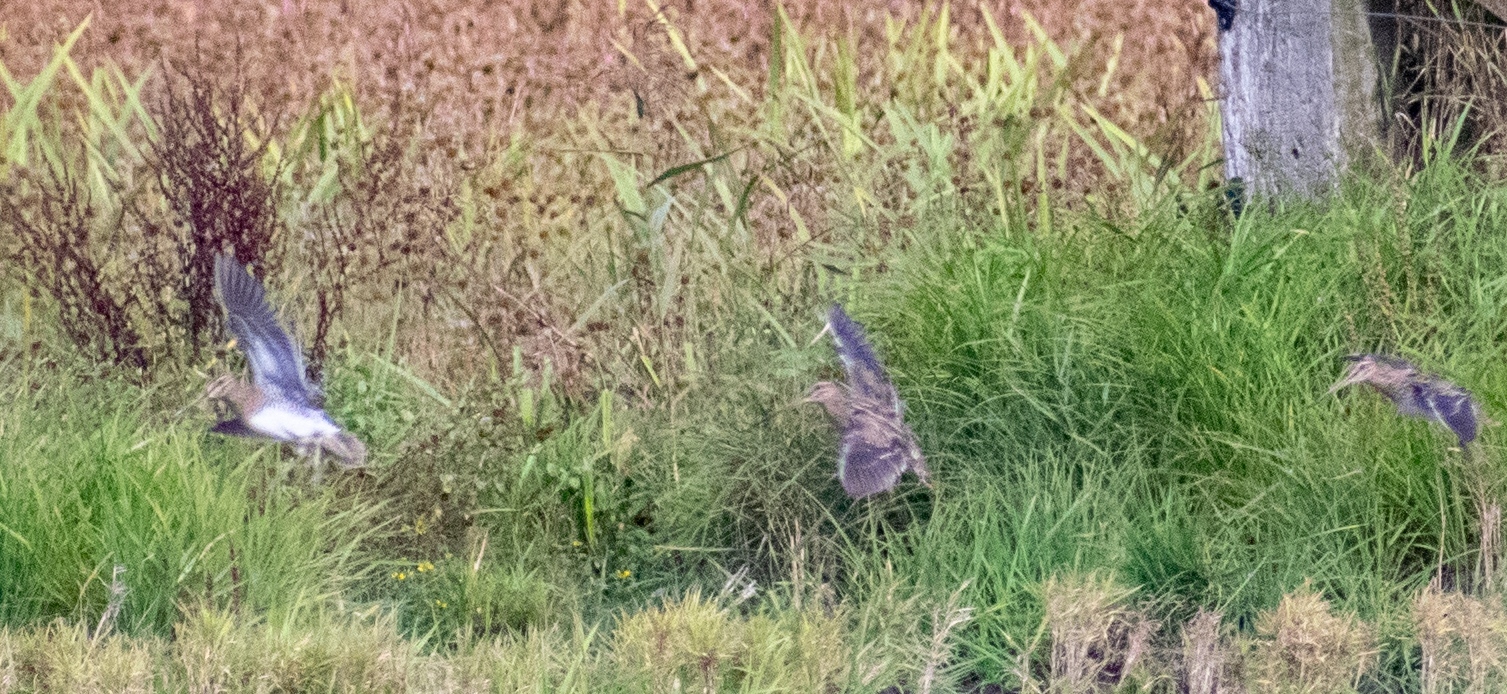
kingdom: Animalia
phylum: Chordata
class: Aves
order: Charadriiformes
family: Scolopacidae
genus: Gallinago
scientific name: Gallinago gallinago
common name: Common snipe
